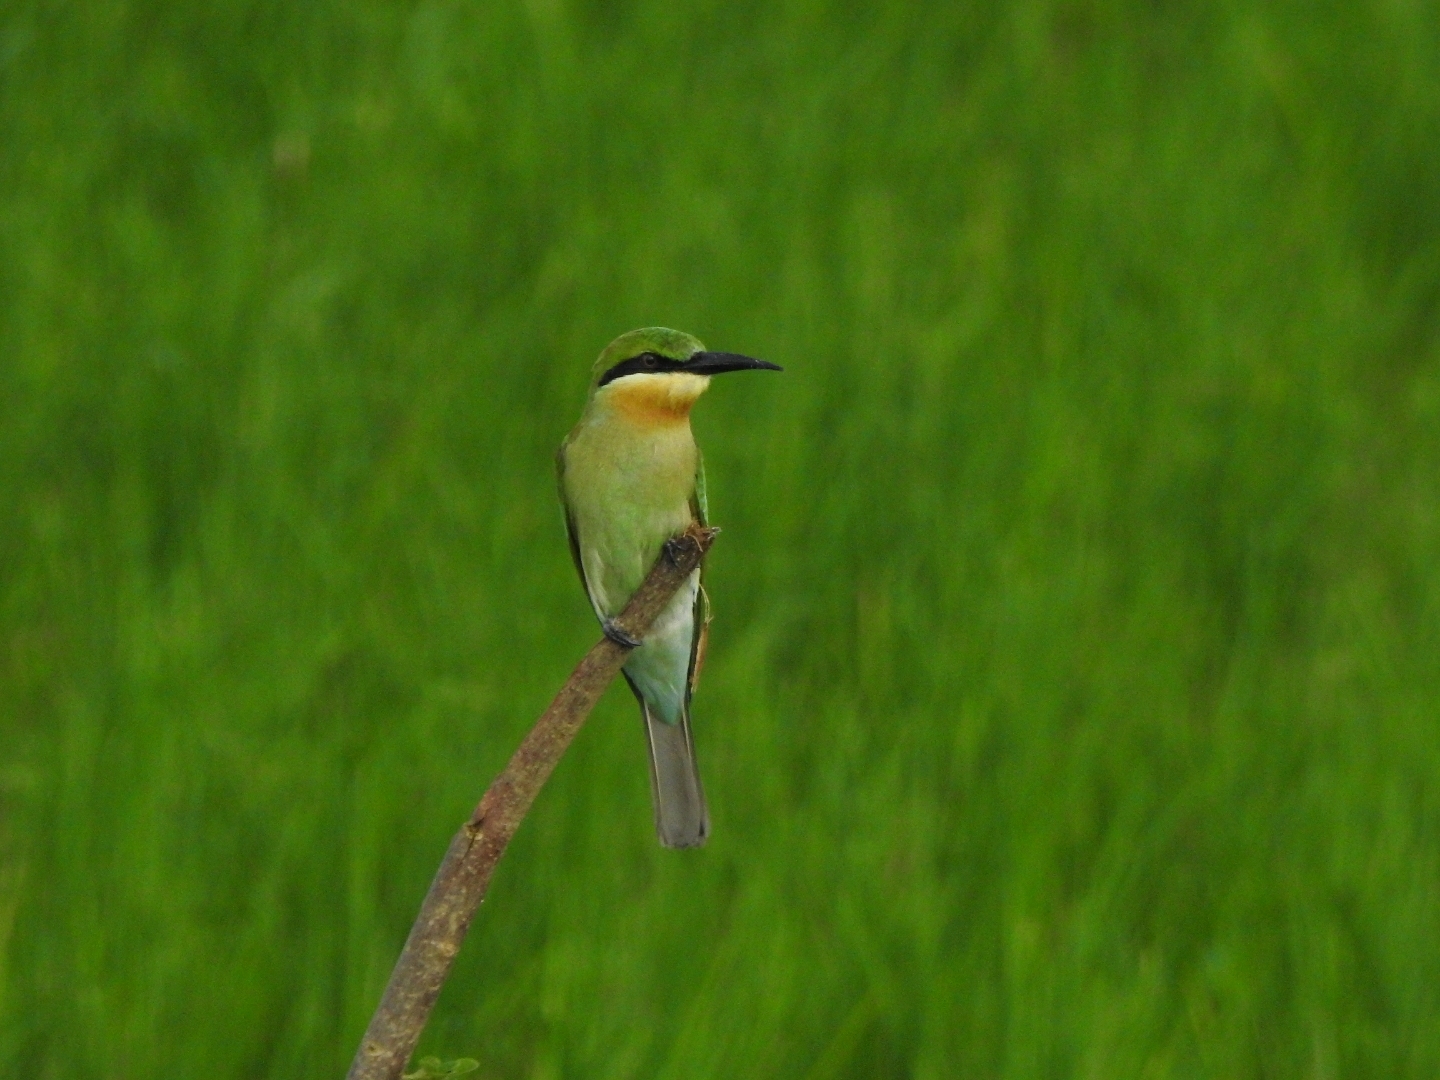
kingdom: Animalia
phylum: Chordata
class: Aves
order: Coraciiformes
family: Meropidae
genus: Merops
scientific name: Merops philippinus
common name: Blue-tailed bee-eater
